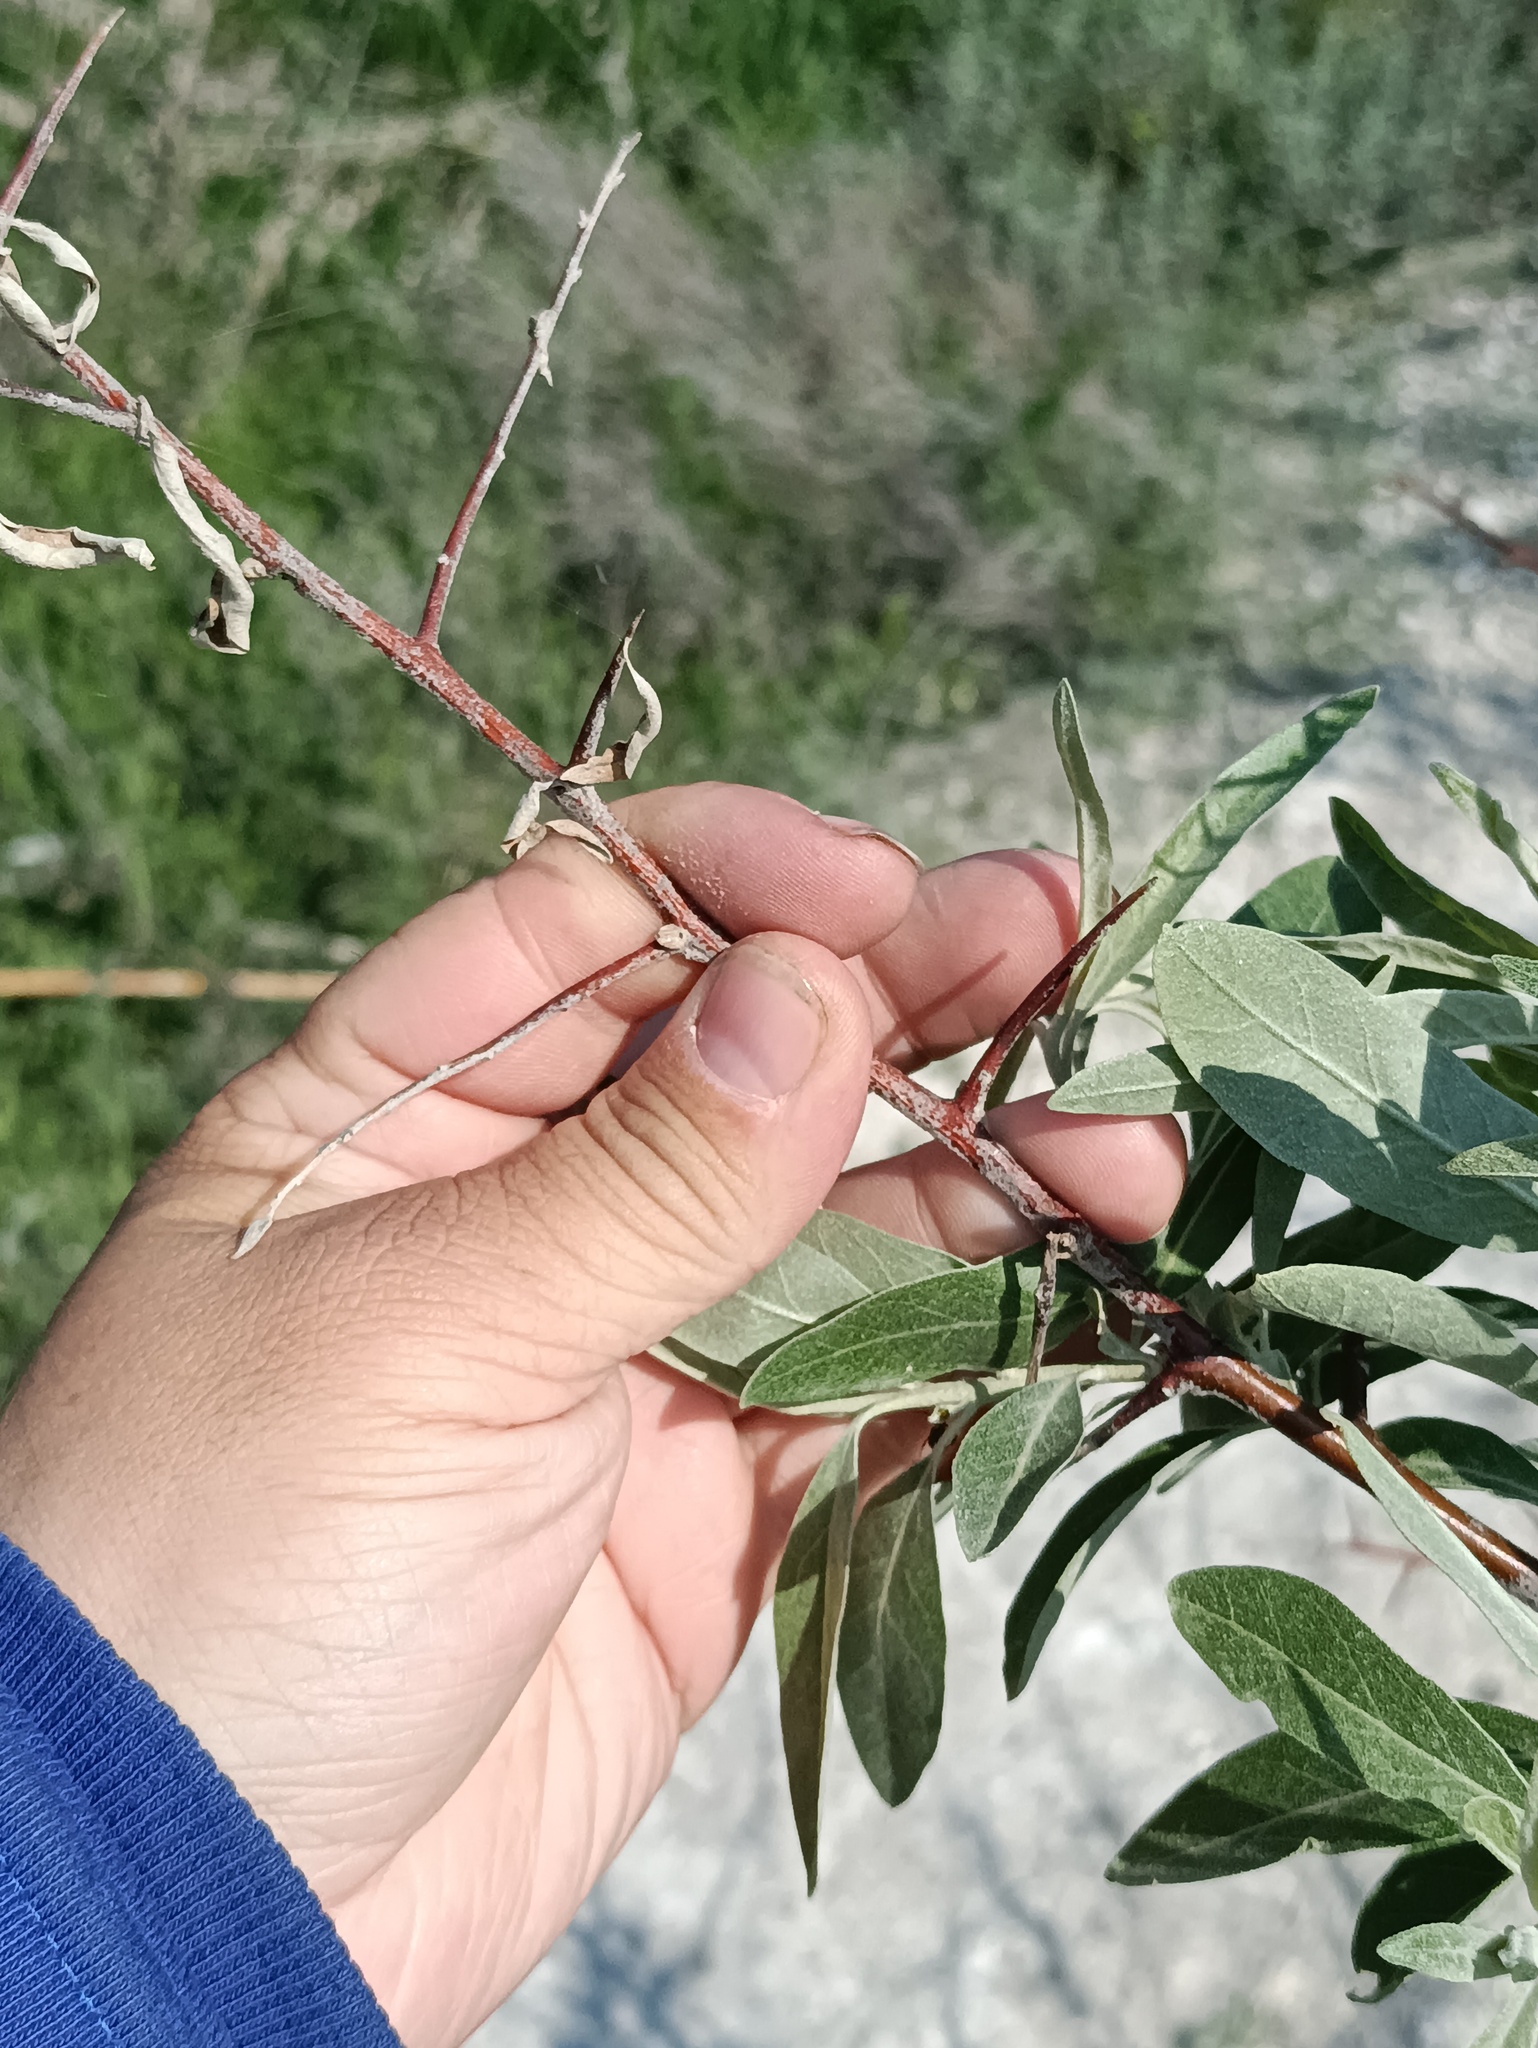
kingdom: Plantae
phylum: Tracheophyta
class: Magnoliopsida
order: Rosales
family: Elaeagnaceae
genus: Elaeagnus
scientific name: Elaeagnus angustifolia
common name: Russian olive
